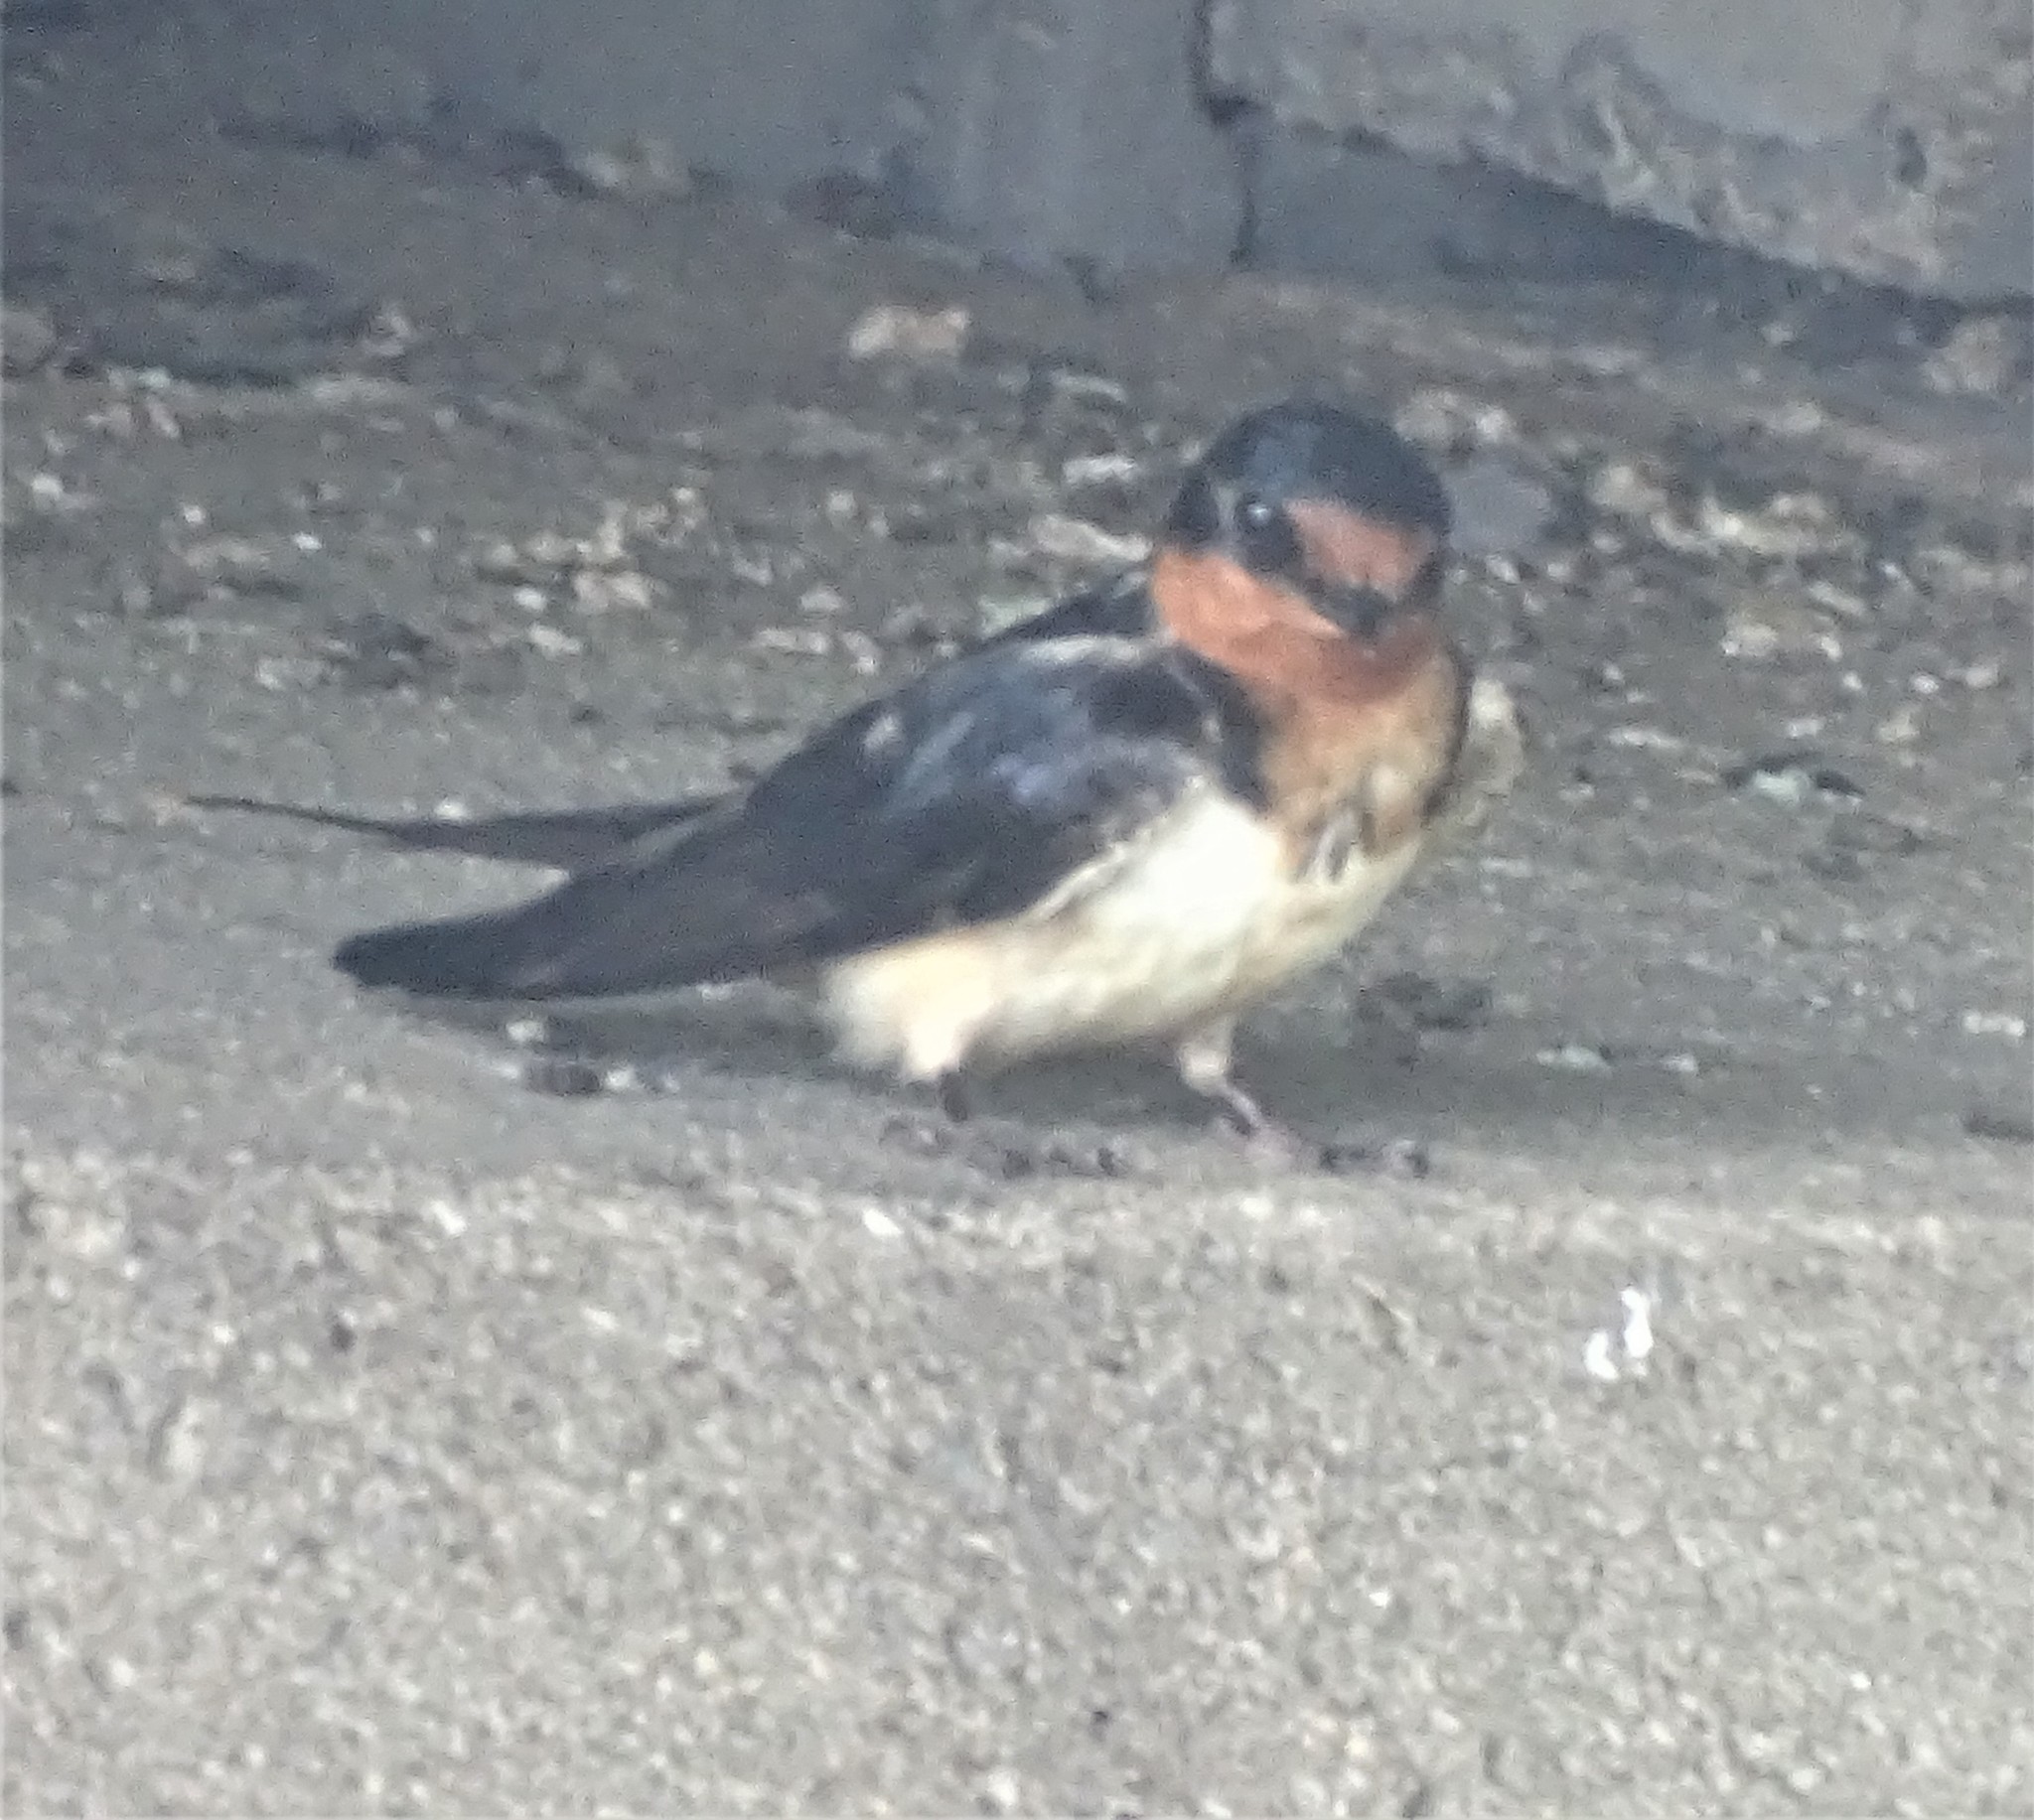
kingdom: Animalia
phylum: Chordata
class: Aves
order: Passeriformes
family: Hirundinidae
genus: Hirundo
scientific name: Hirundo rustica
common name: Barn swallow
